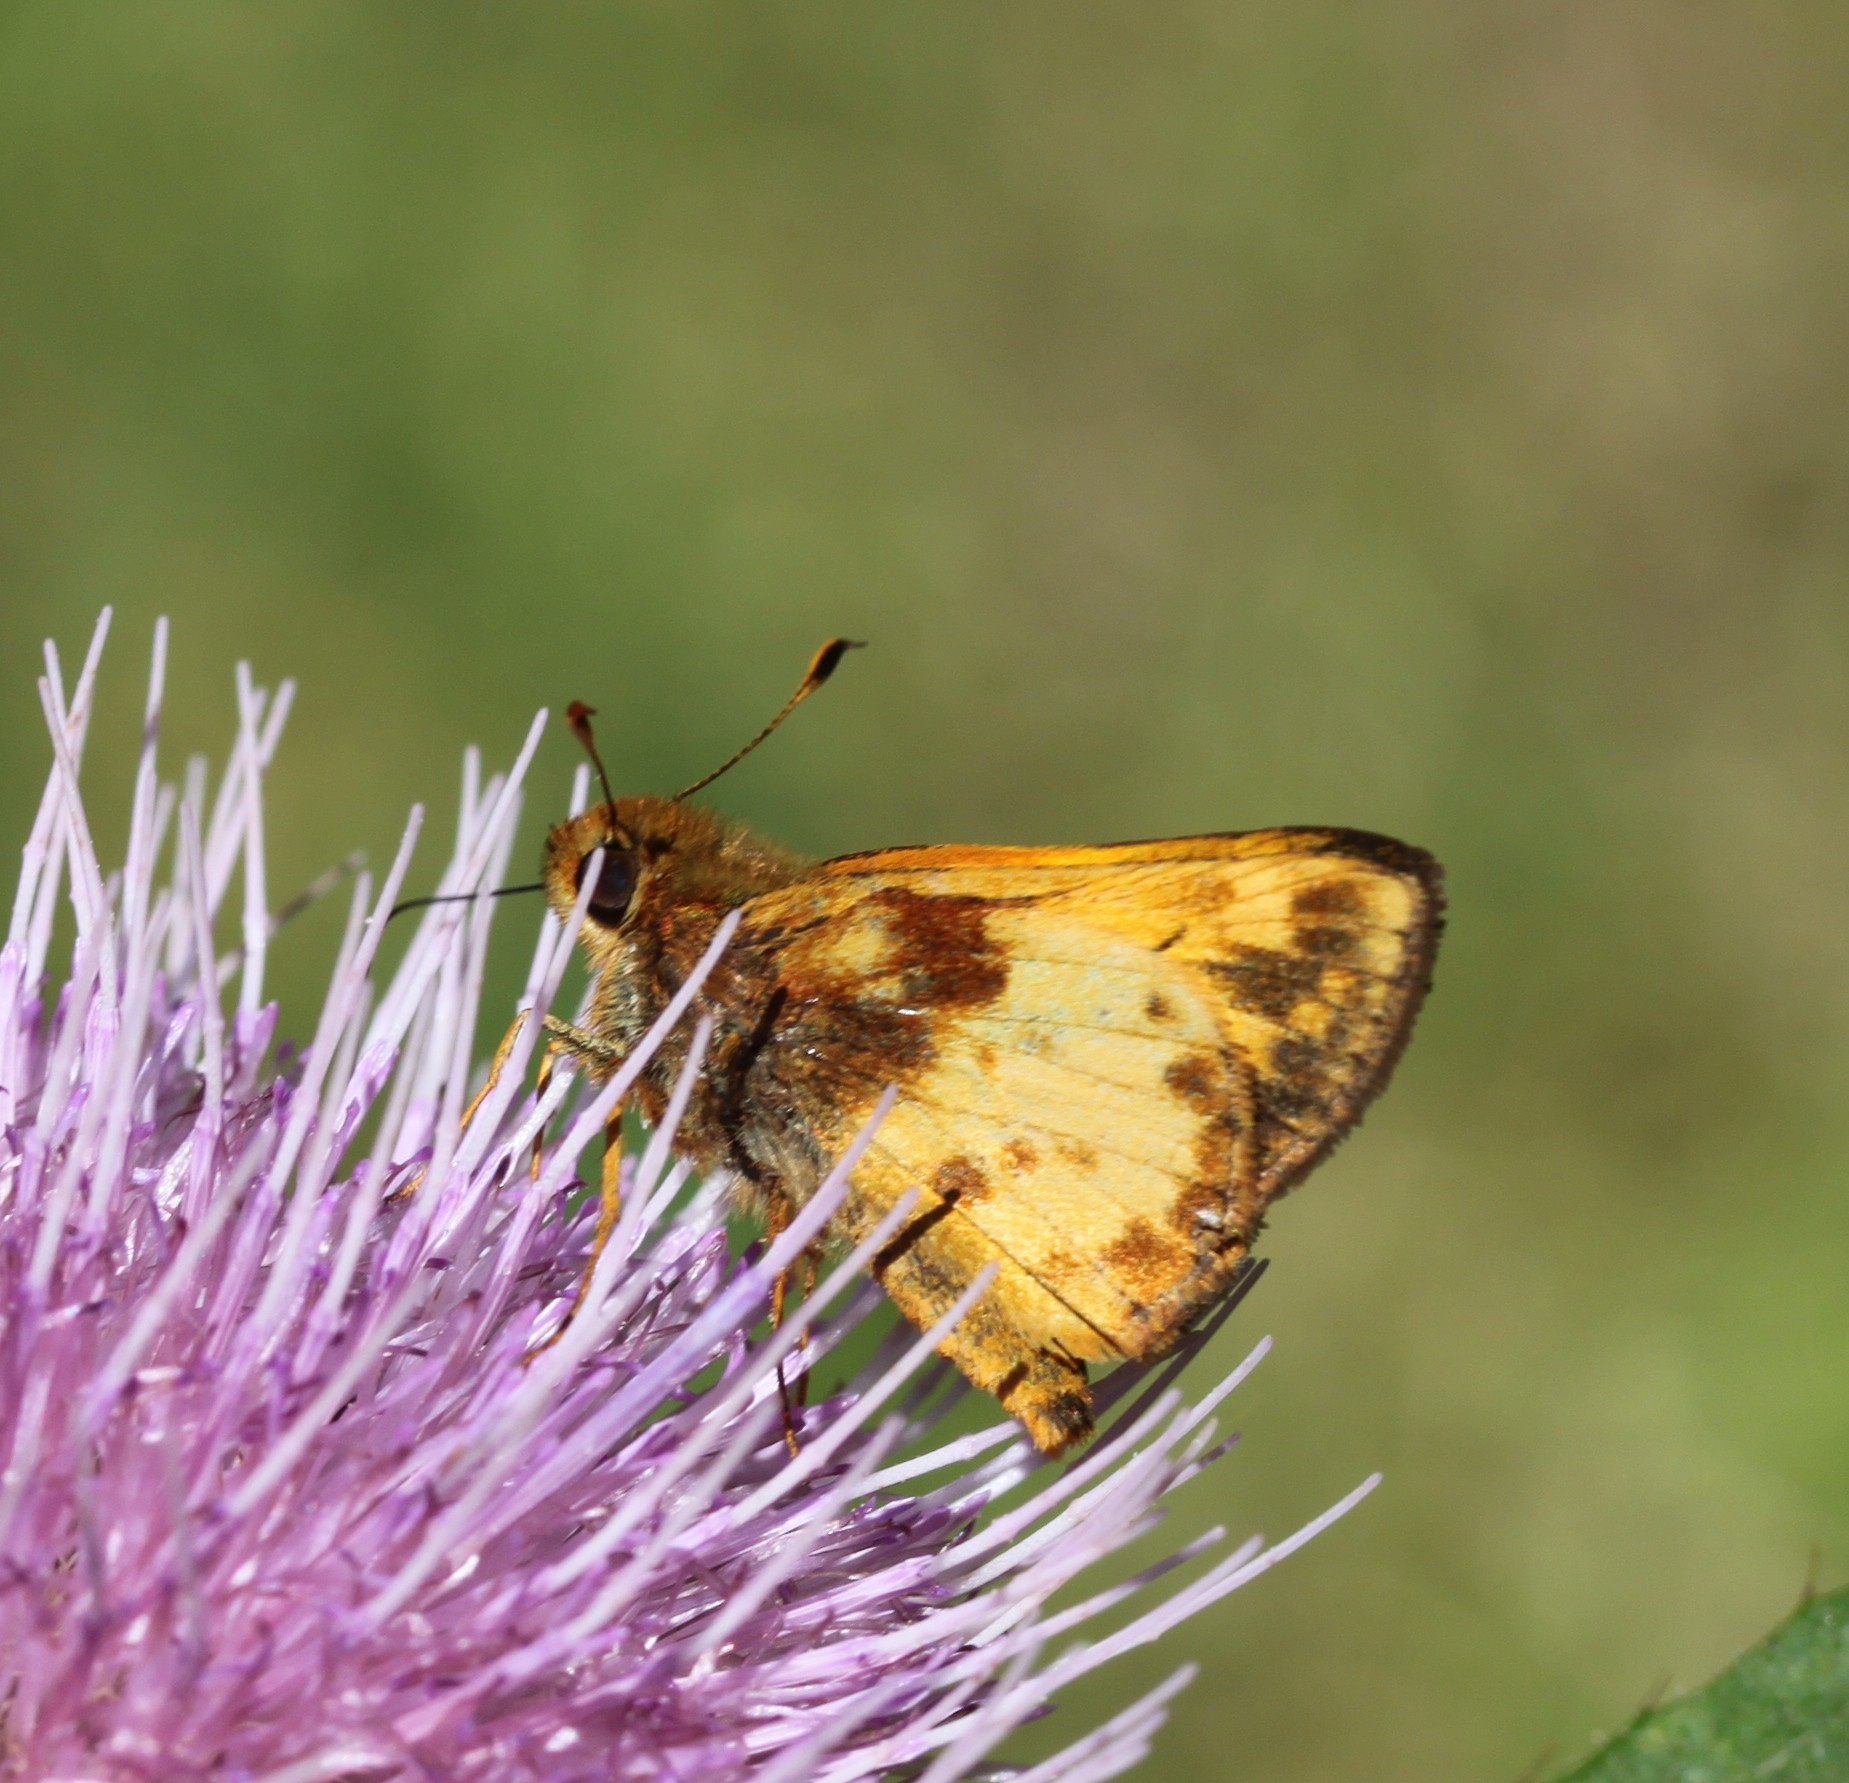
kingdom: Animalia
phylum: Arthropoda
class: Insecta
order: Lepidoptera
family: Hesperiidae
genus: Lon
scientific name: Lon zabulon
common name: Zabulon skipper
